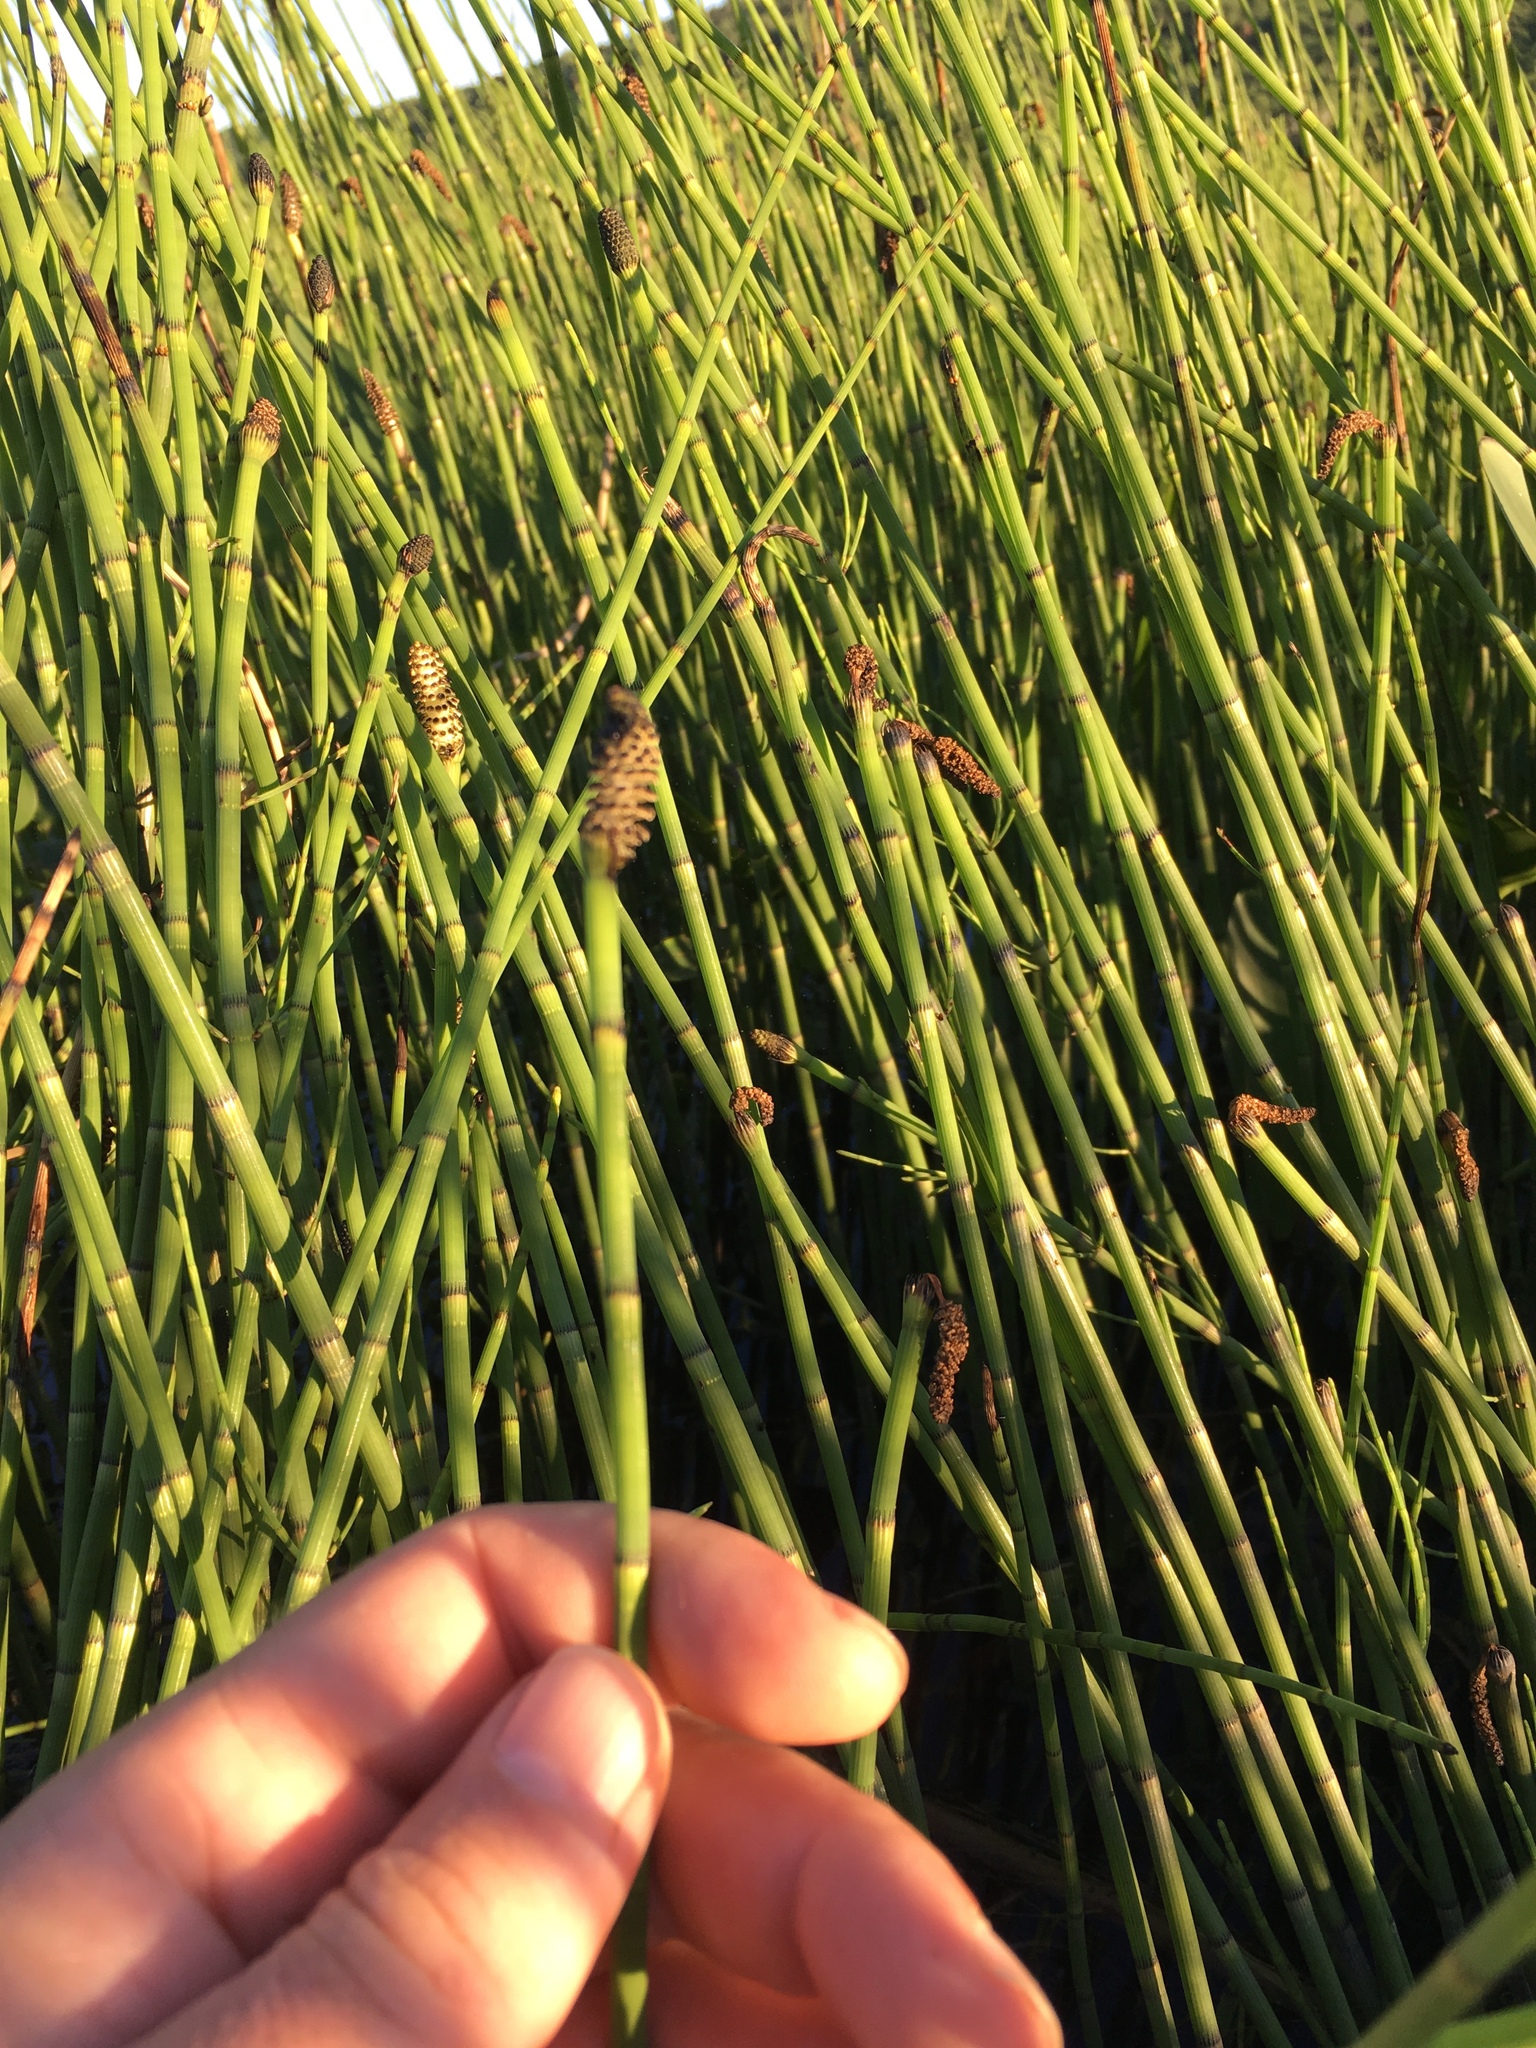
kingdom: Plantae
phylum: Tracheophyta
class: Polypodiopsida
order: Equisetales
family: Equisetaceae
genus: Equisetum
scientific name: Equisetum fluviatile
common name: Water horsetail
